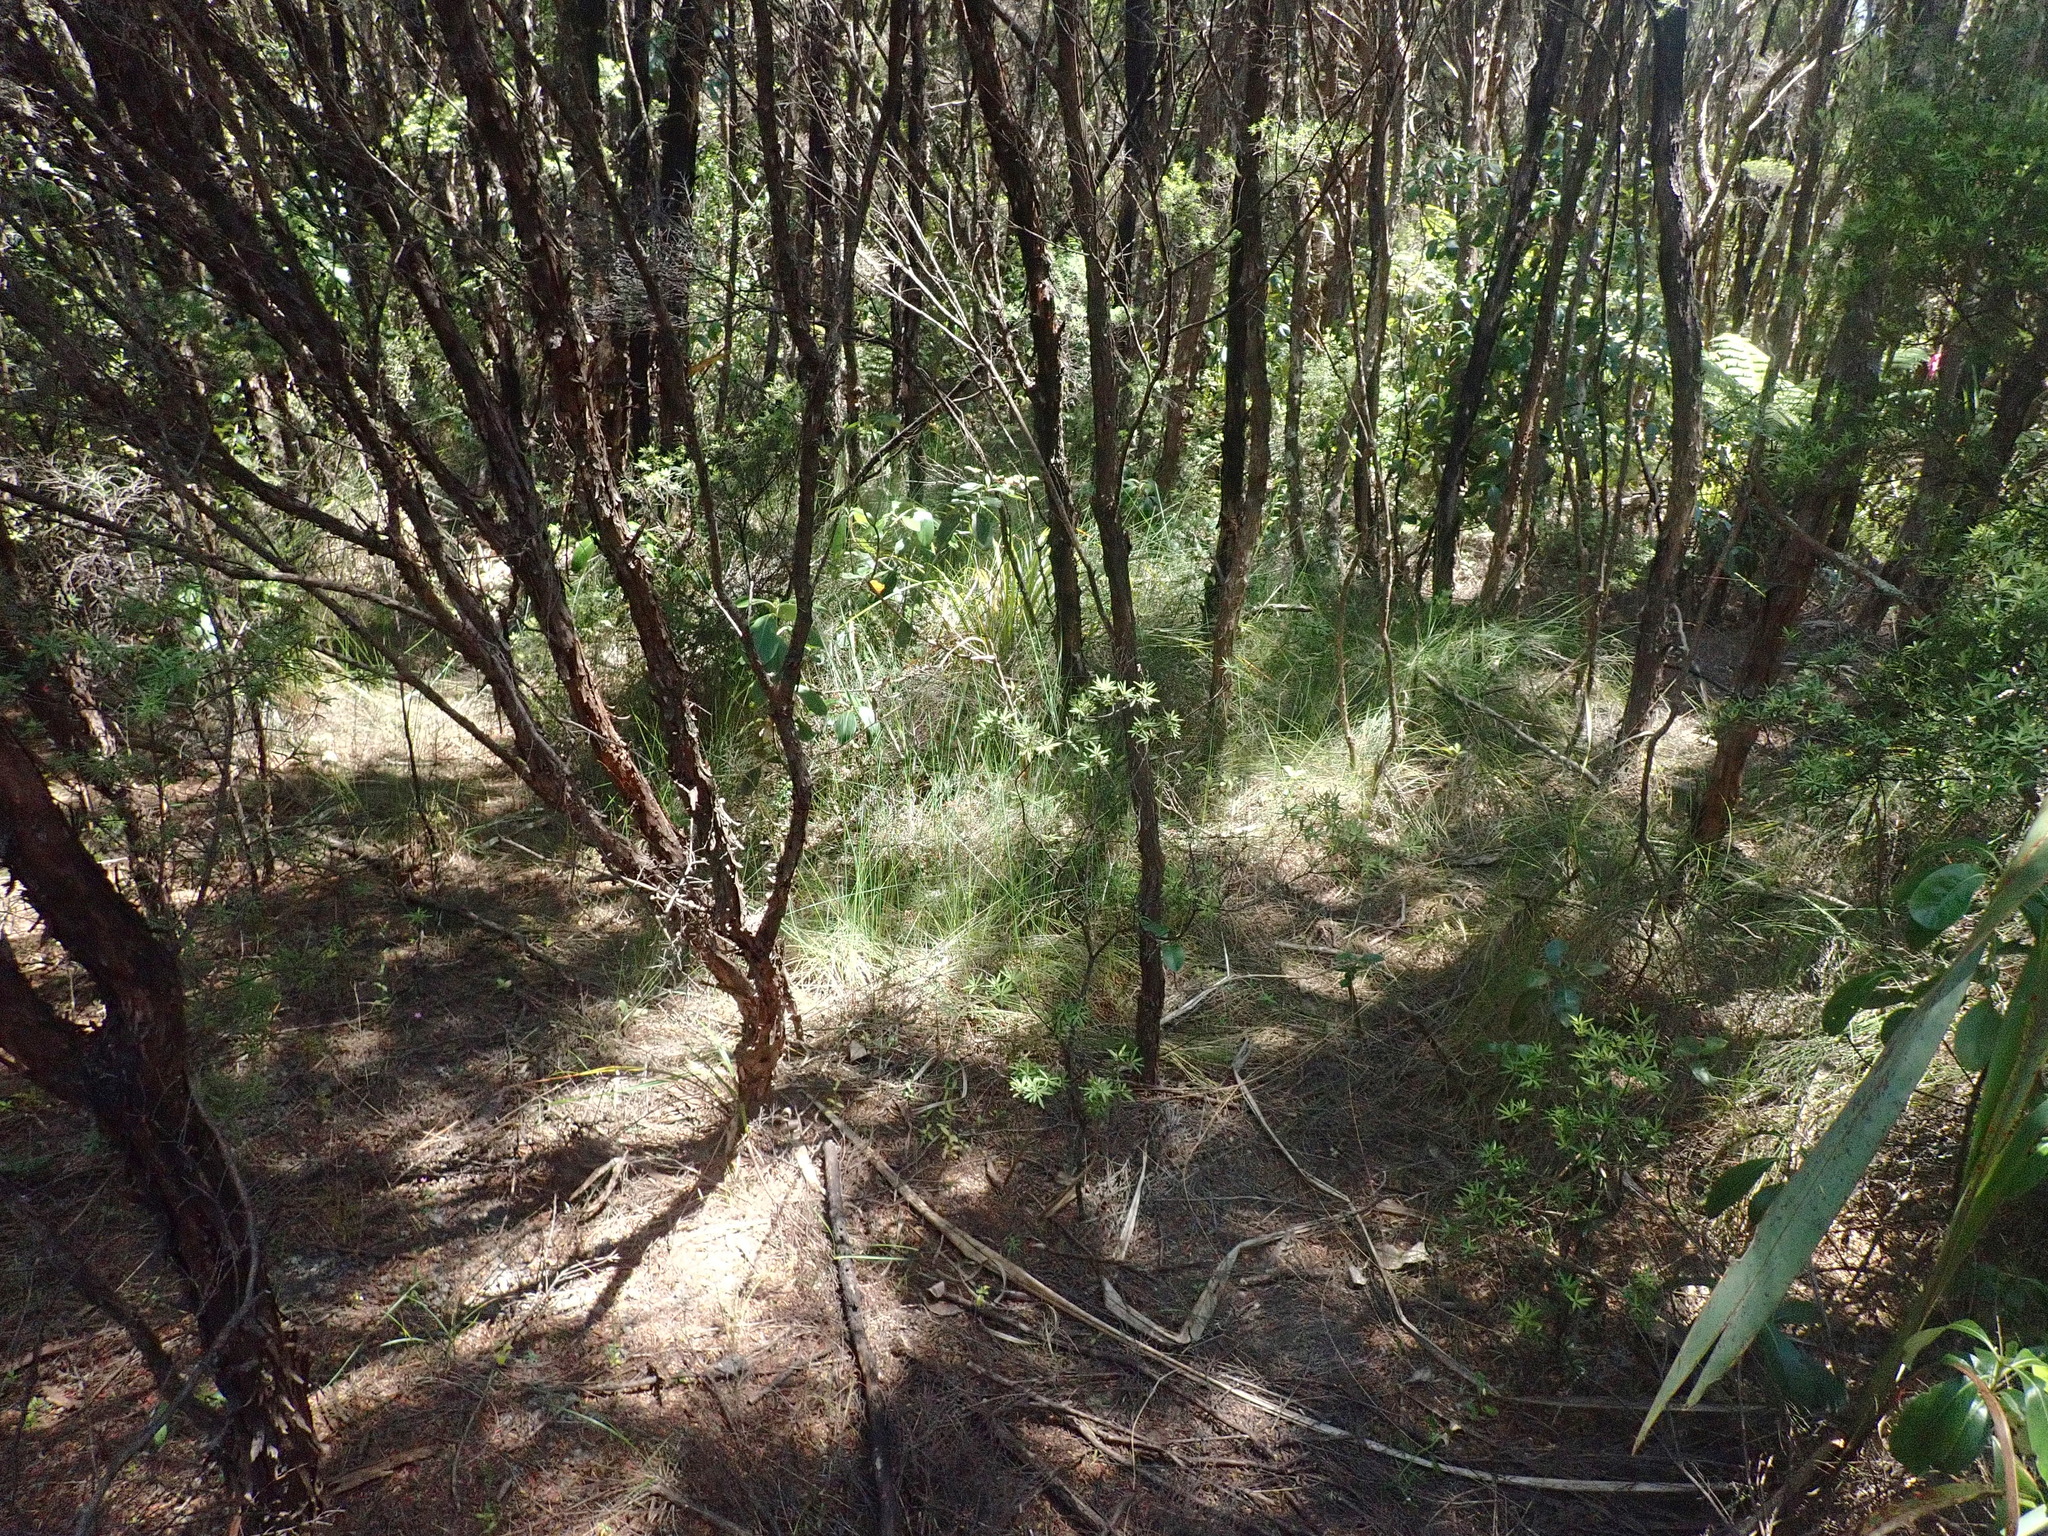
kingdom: Plantae
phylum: Tracheophyta
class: Liliopsida
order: Poales
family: Cyperaceae
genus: Schoenus
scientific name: Schoenus tendo
